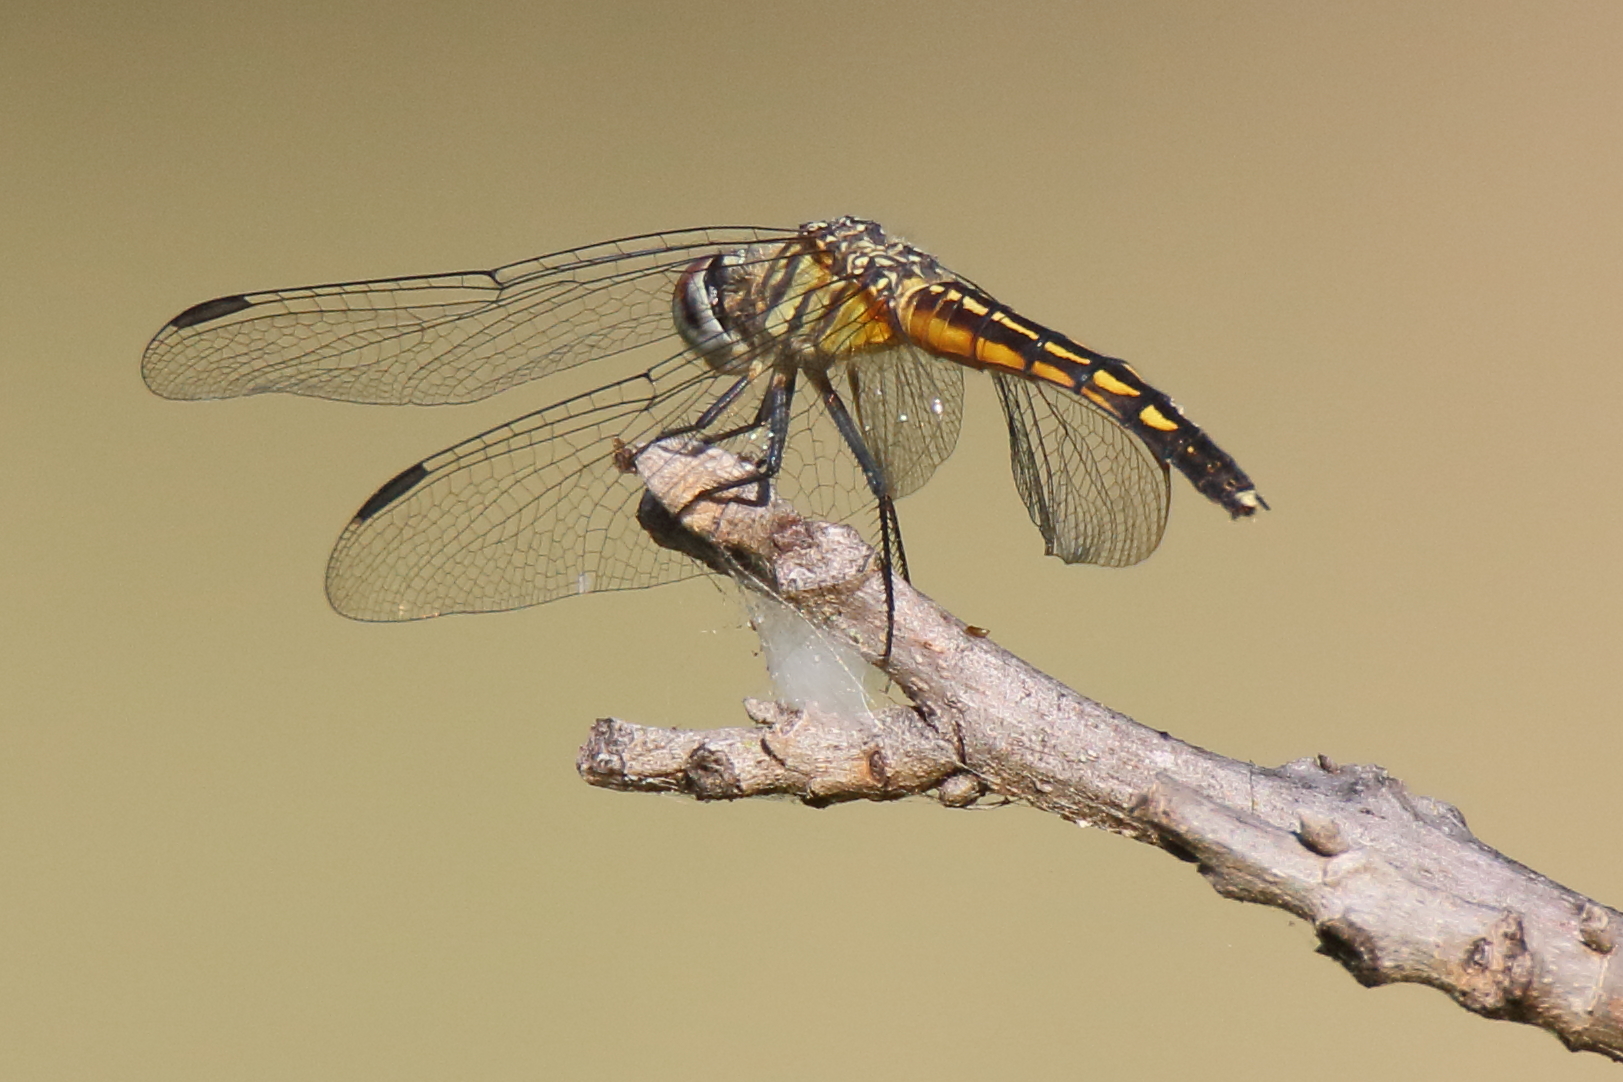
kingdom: Animalia
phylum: Arthropoda
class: Insecta
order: Odonata
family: Libellulidae
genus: Pachydiplax
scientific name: Pachydiplax longipennis
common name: Blue dasher
